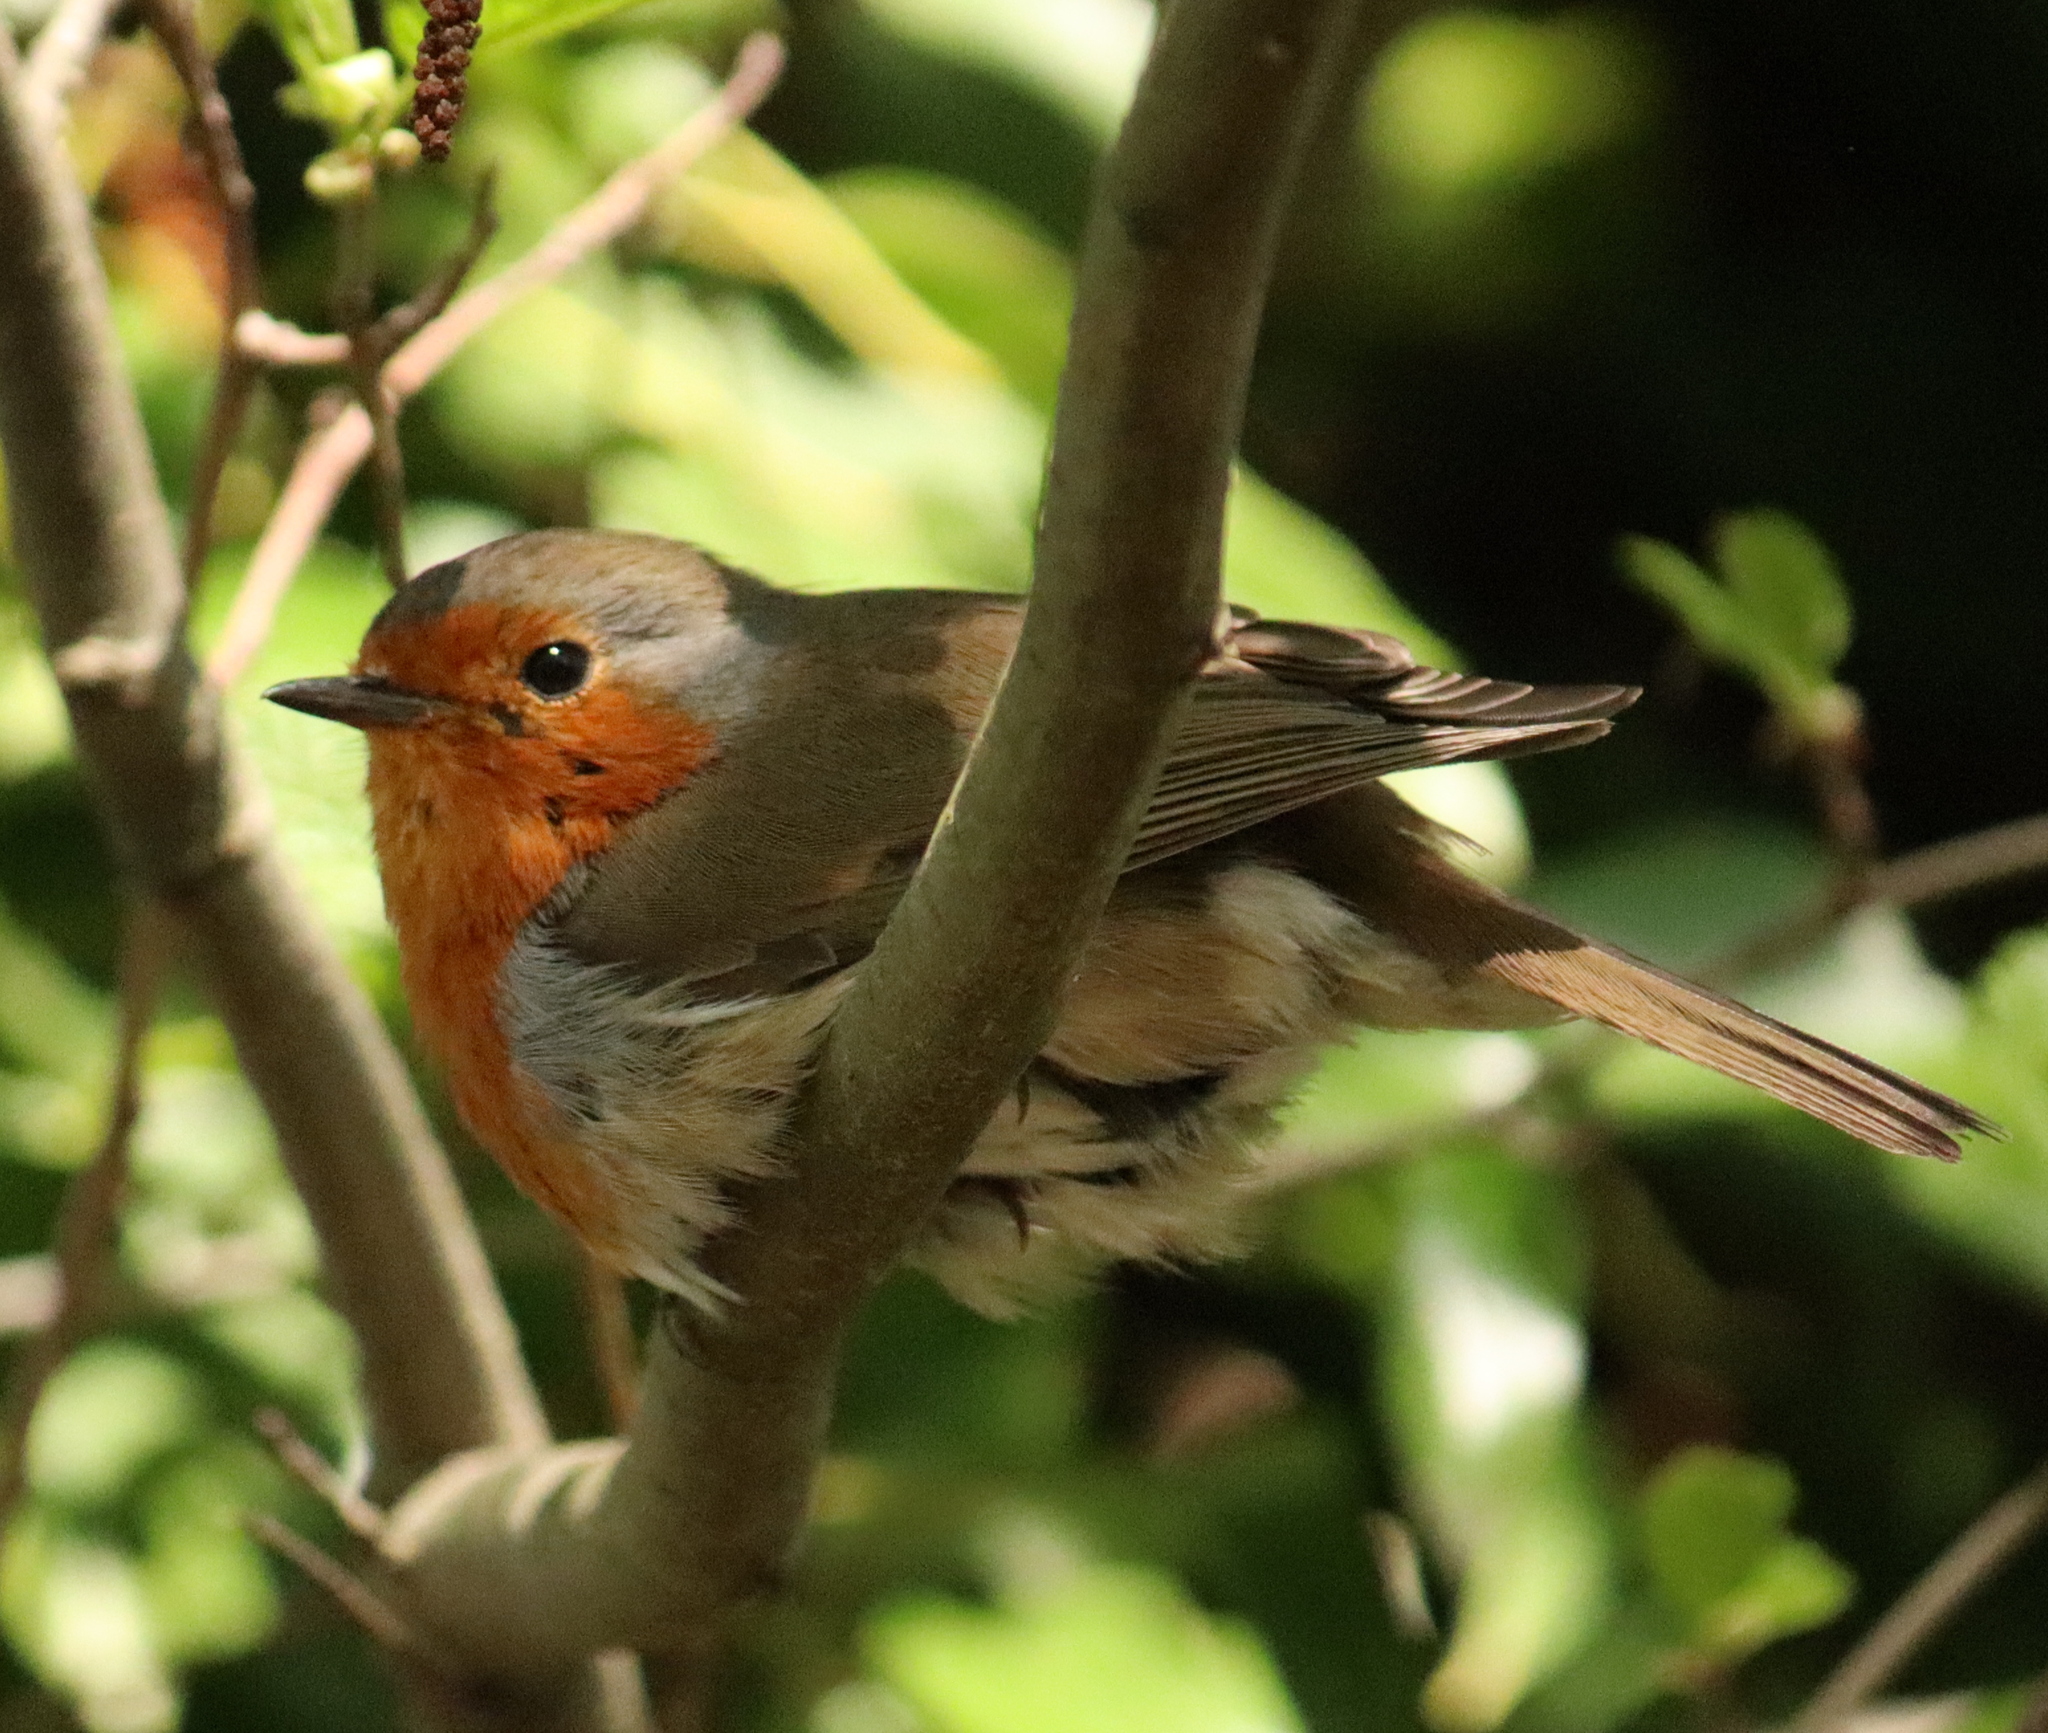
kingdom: Animalia
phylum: Chordata
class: Aves
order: Passeriformes
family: Muscicapidae
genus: Erithacus
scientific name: Erithacus rubecula
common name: European robin
